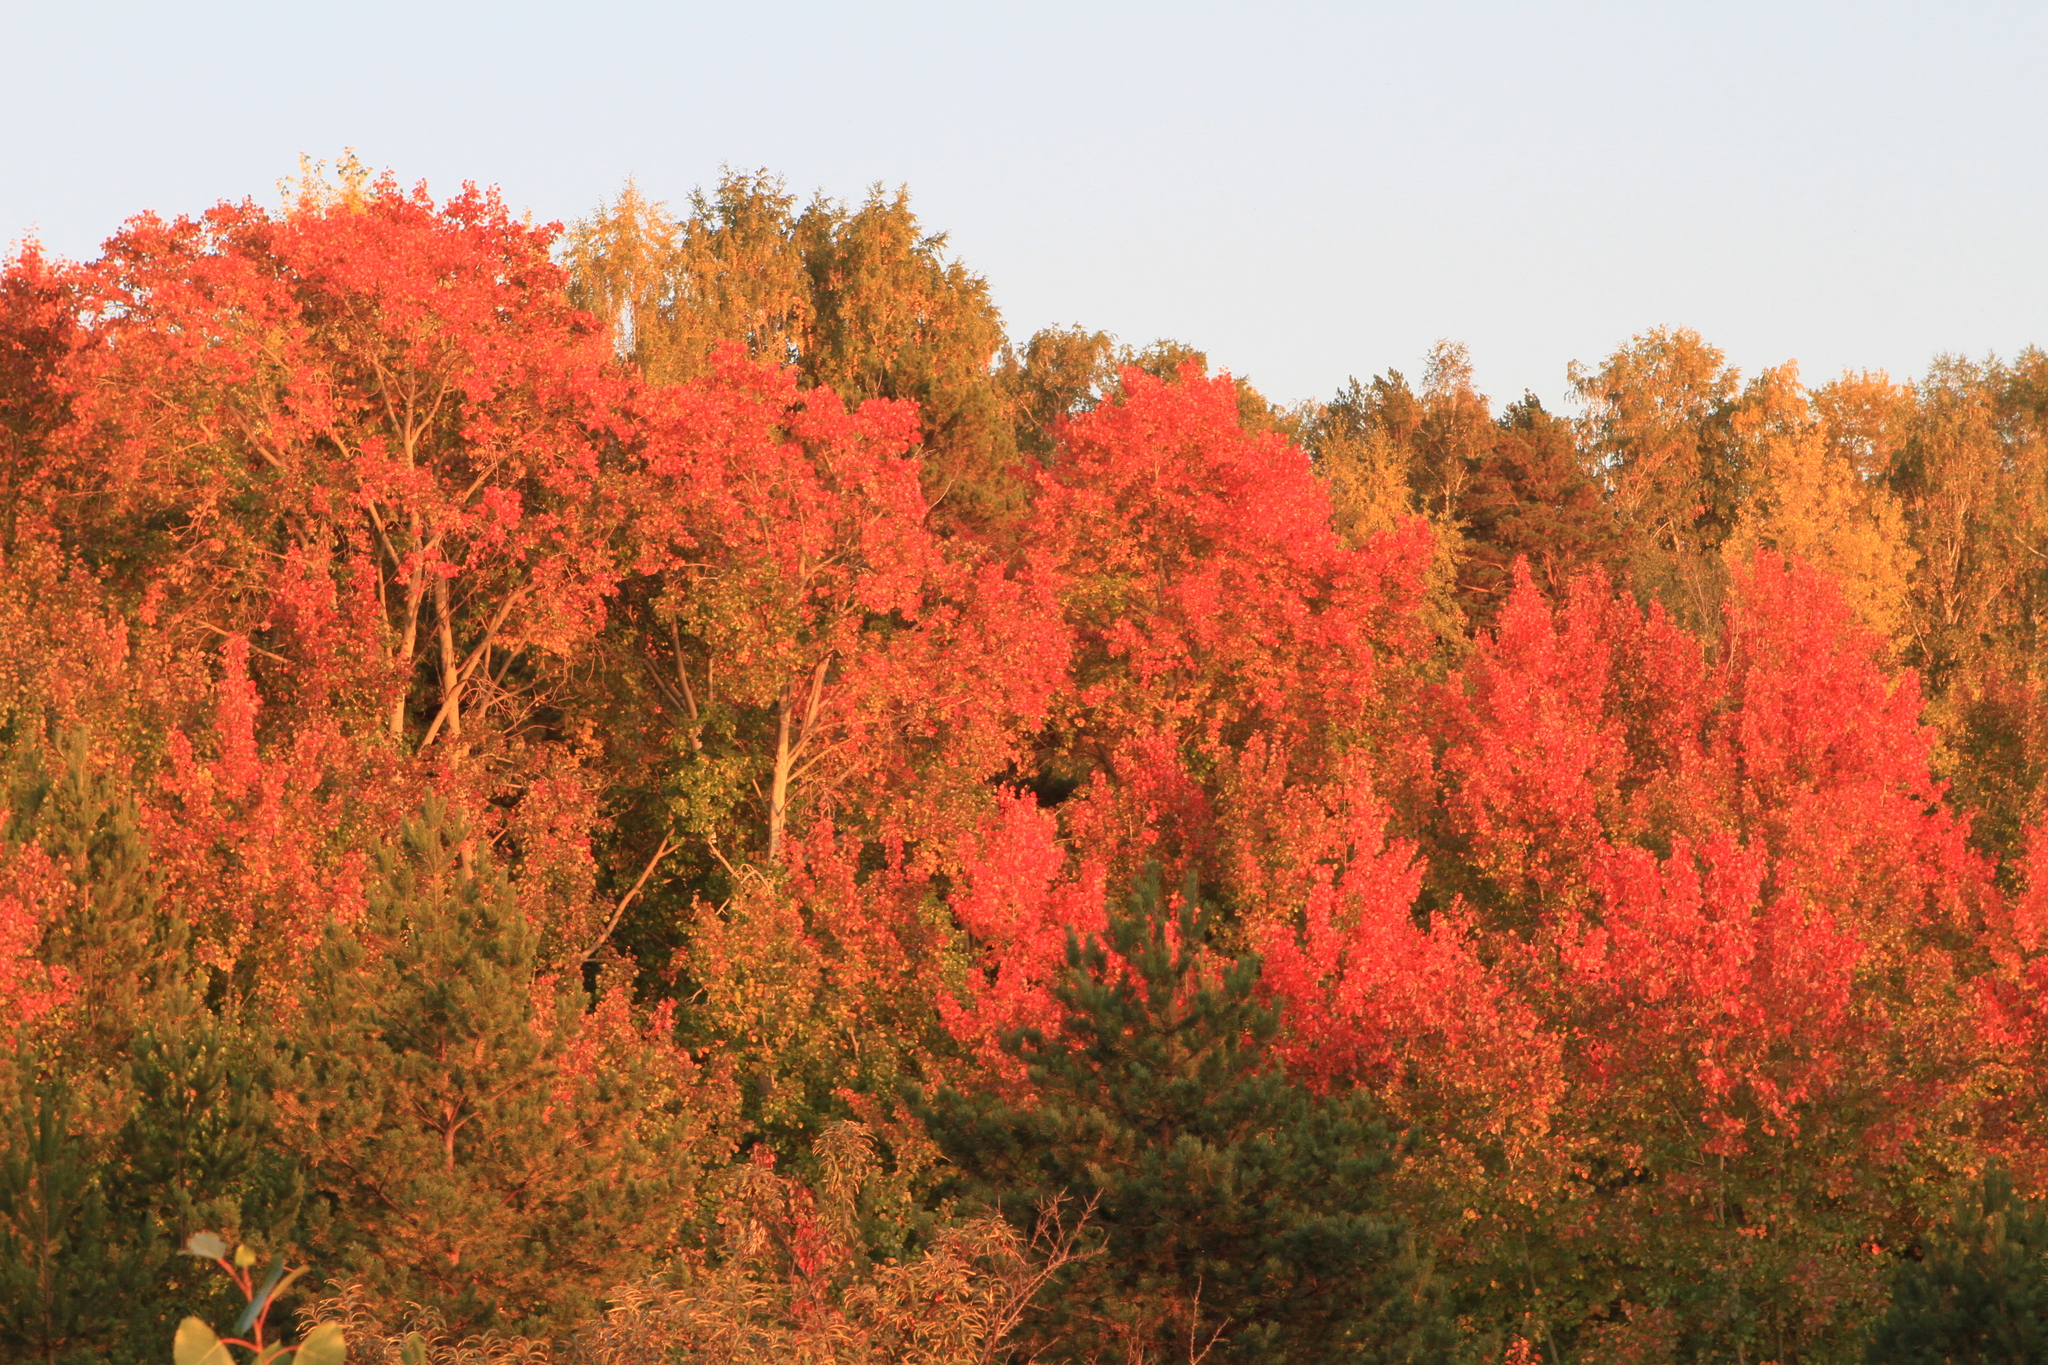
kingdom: Plantae
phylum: Tracheophyta
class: Magnoliopsida
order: Malpighiales
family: Salicaceae
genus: Populus
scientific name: Populus tremula
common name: European aspen
